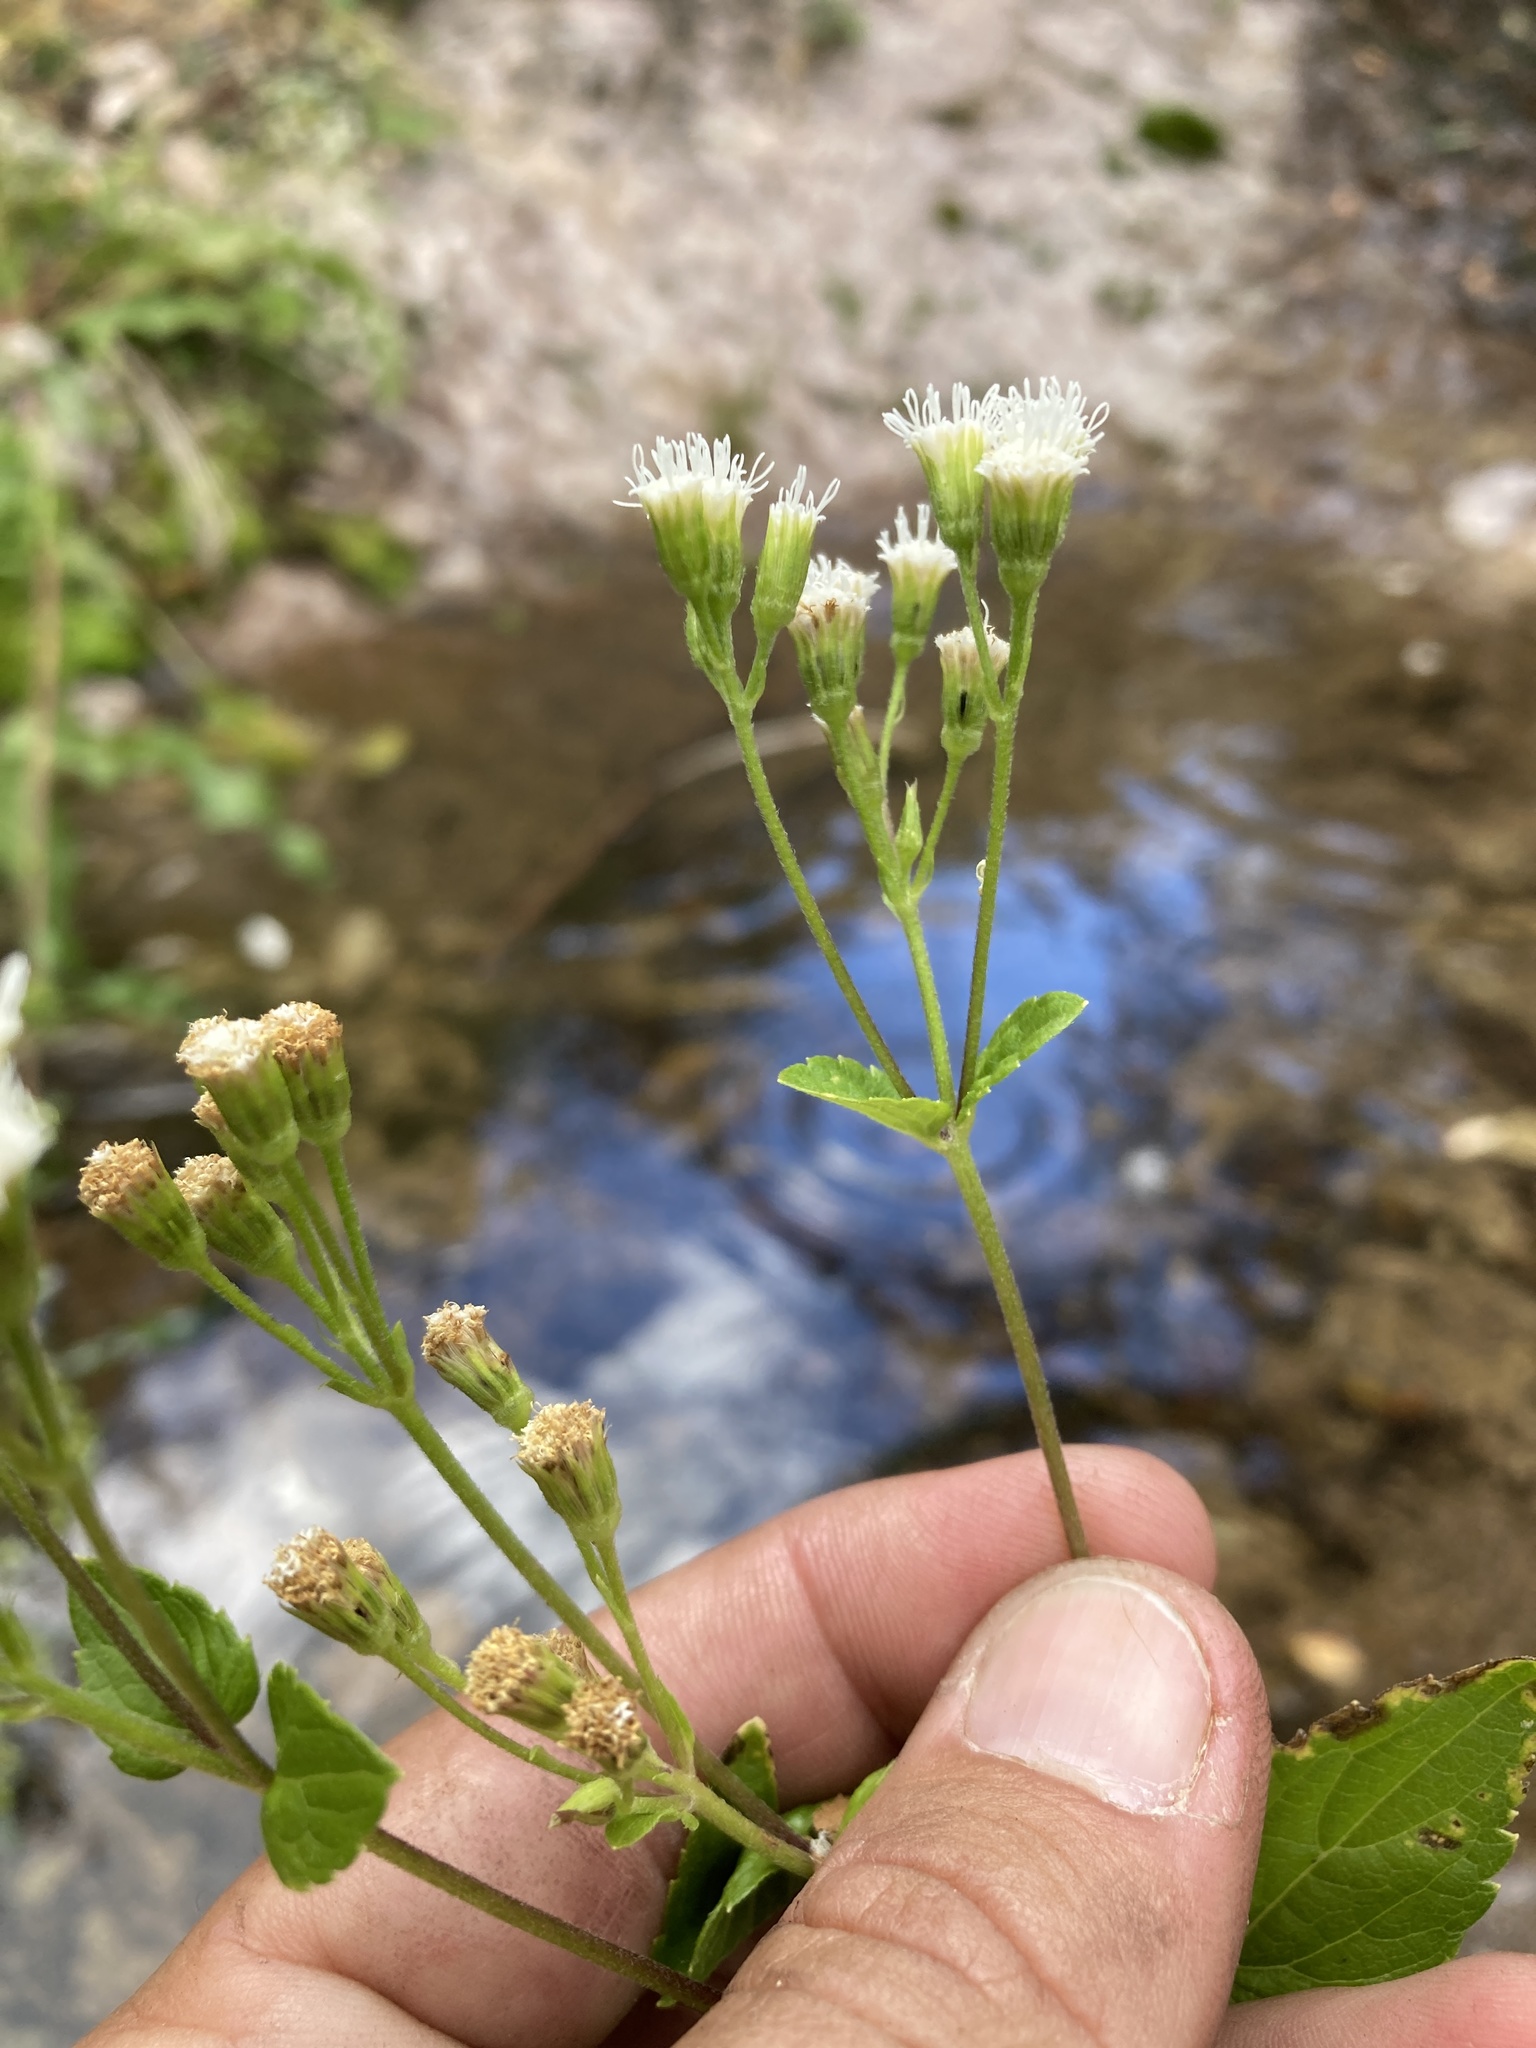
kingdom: Plantae
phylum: Tracheophyta
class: Magnoliopsida
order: Asterales
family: Asteraceae
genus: Ageratina
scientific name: Ageratina rothrockii
